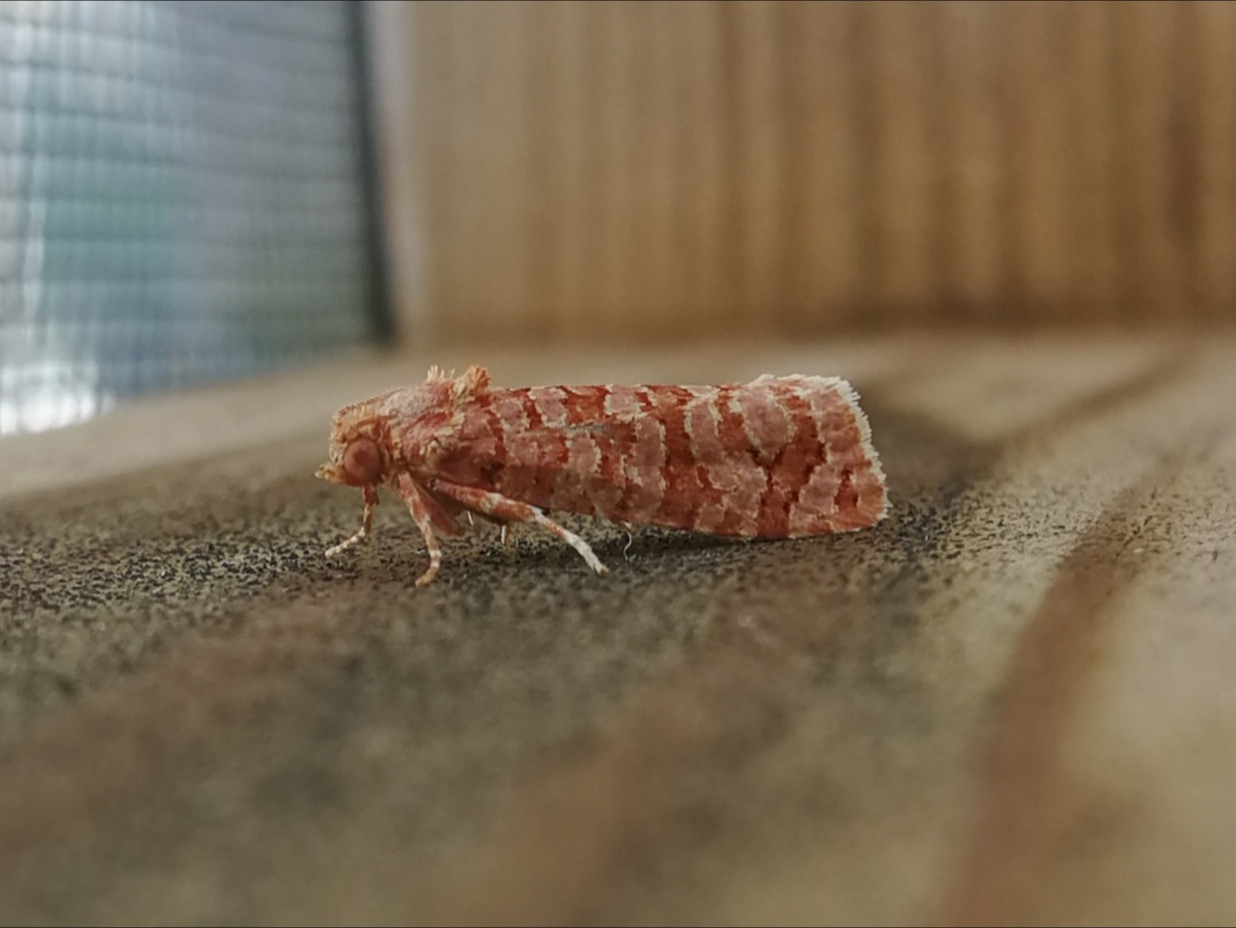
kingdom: Animalia
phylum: Arthropoda
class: Insecta
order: Lepidoptera
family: Tortricidae
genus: Lozotaeniodes
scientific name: Lozotaeniodes formosana
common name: Orange pine twist
